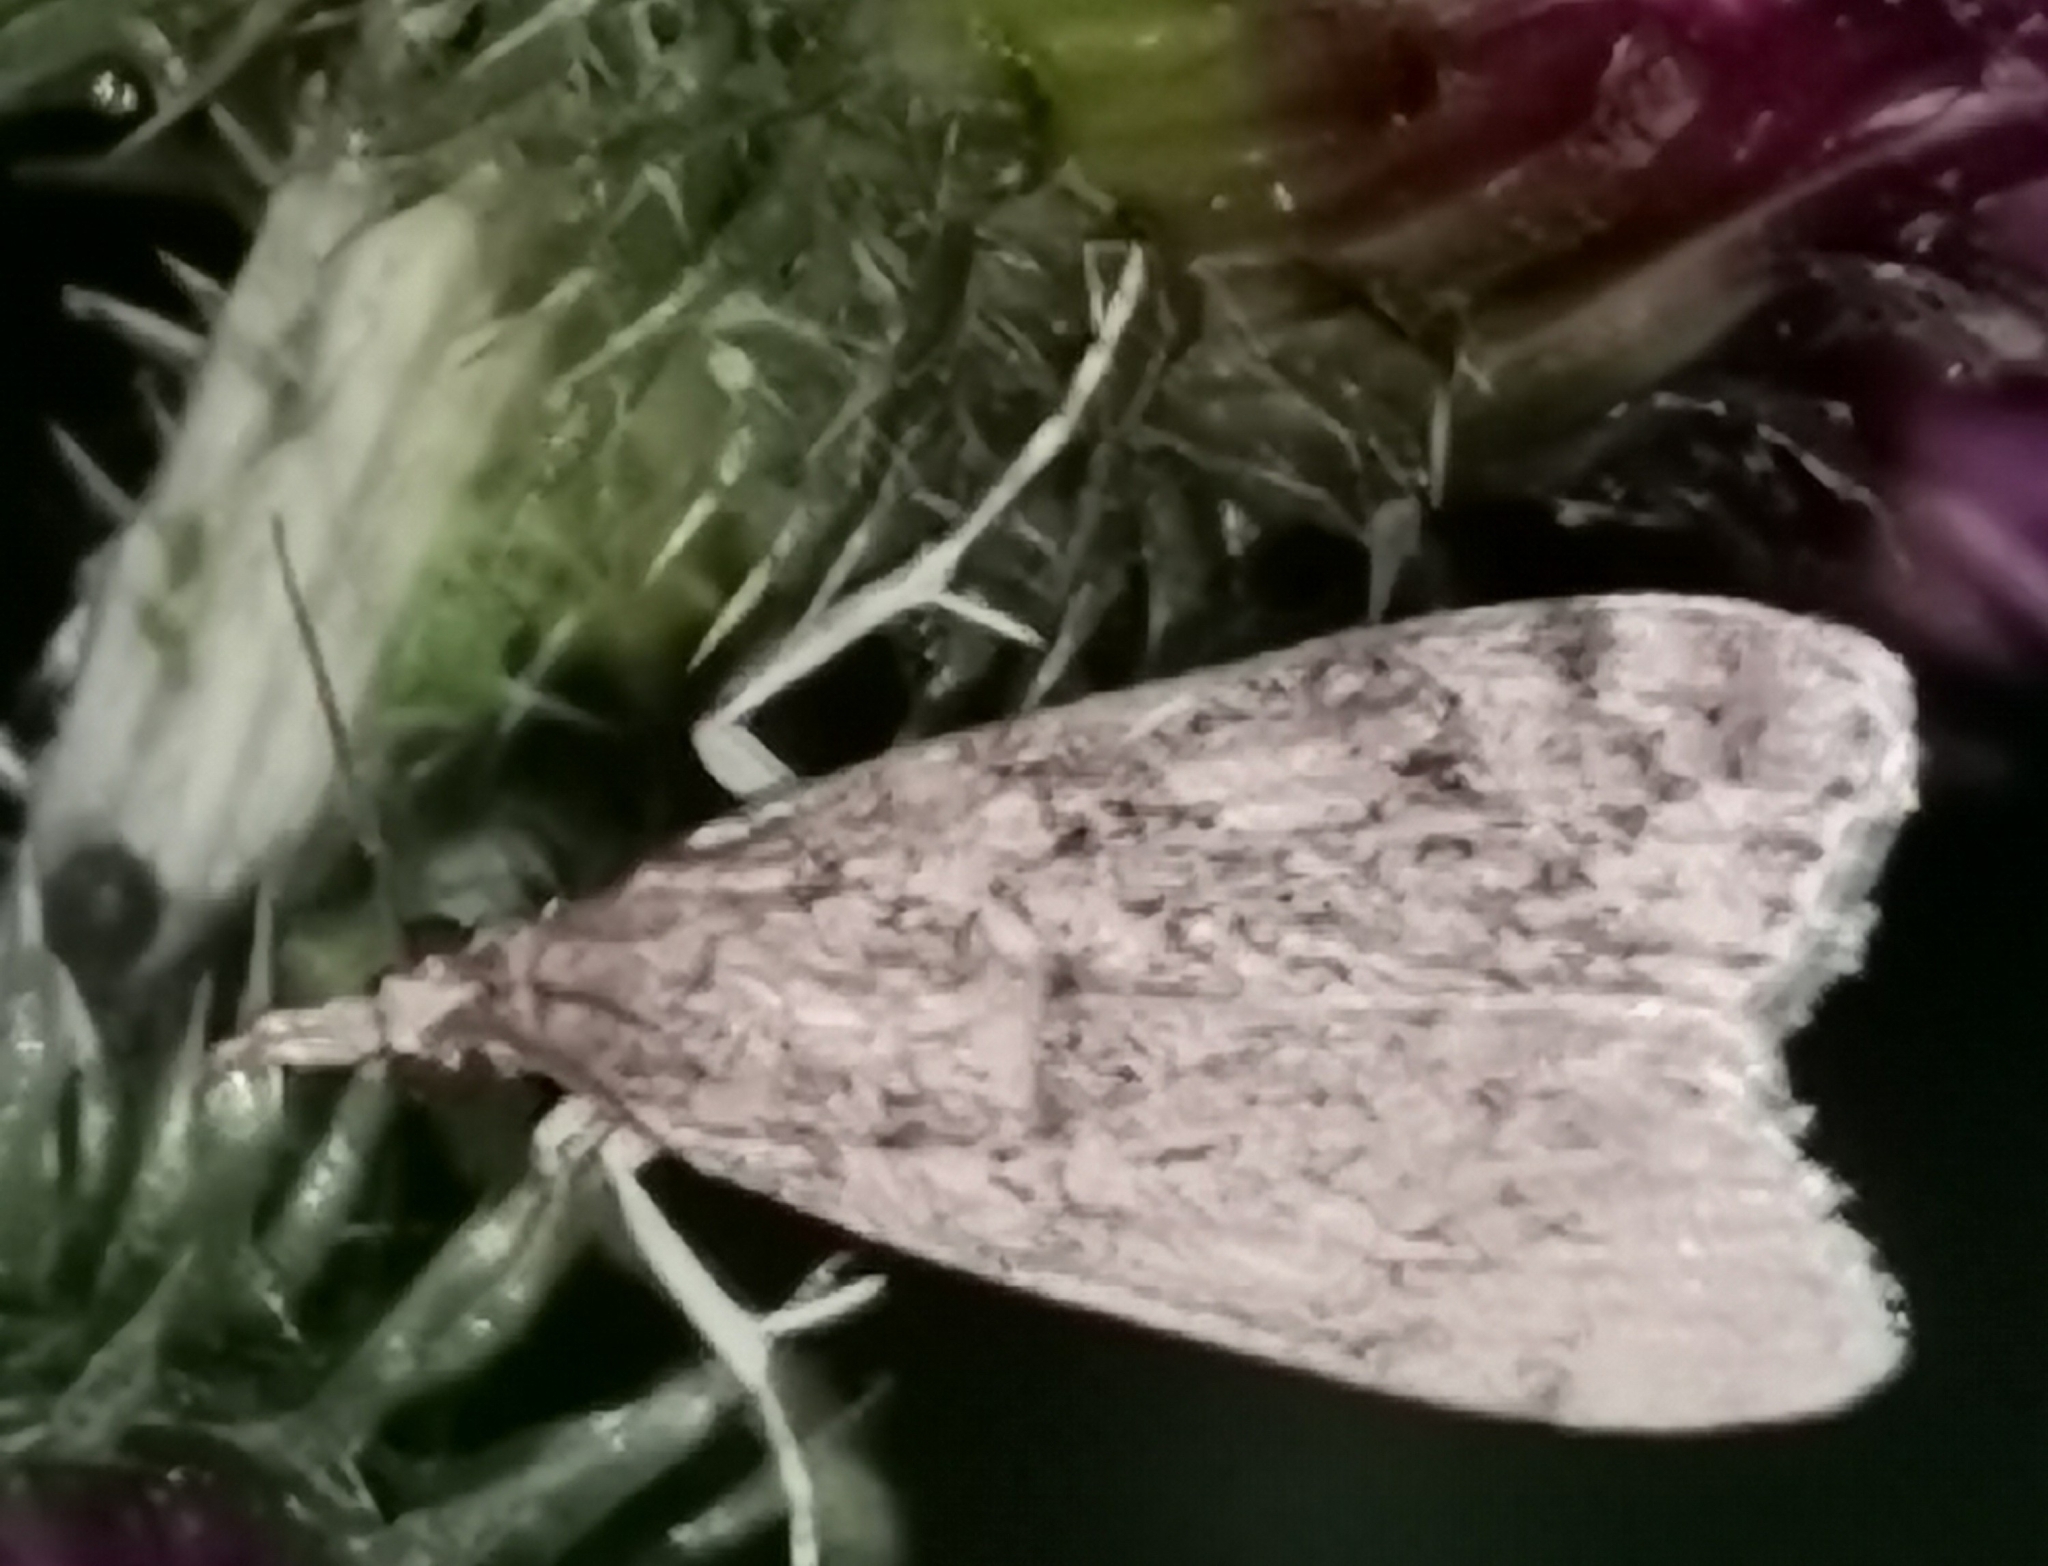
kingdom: Animalia
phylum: Arthropoda
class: Insecta
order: Lepidoptera
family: Crambidae
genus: Eudonia
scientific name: Eudonia truncicolella
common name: Ground-moss grey
